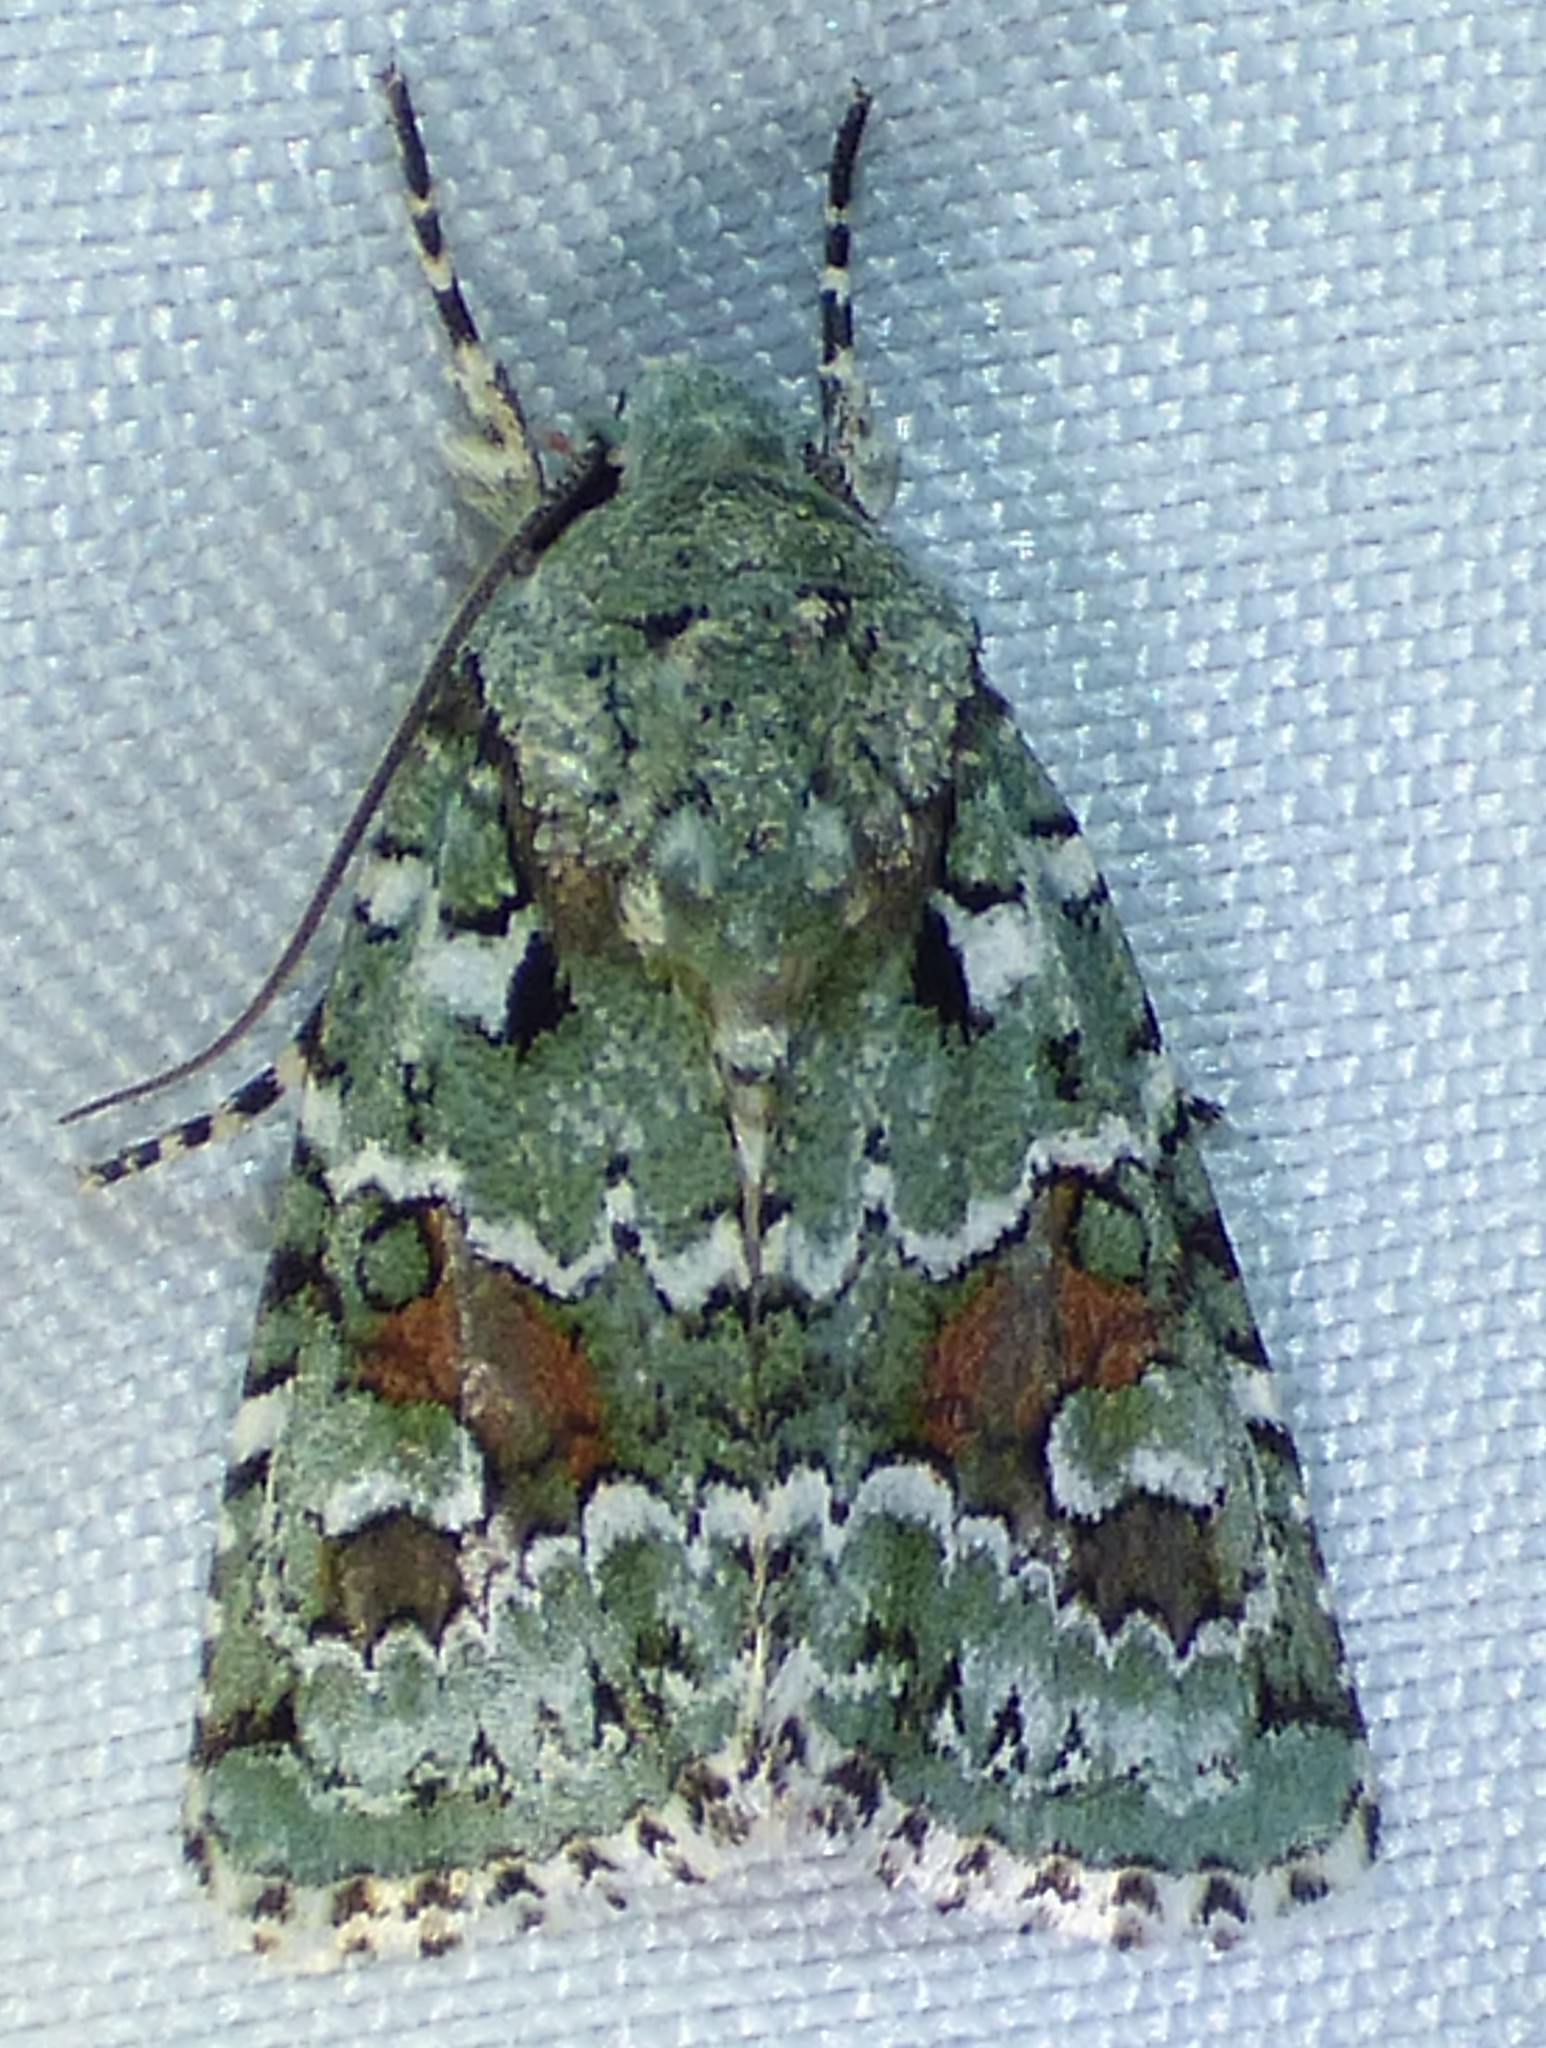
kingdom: Animalia
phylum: Arthropoda
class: Insecta
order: Lepidoptera
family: Noctuidae
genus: Lacinipolia
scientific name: Lacinipolia laudabilis
